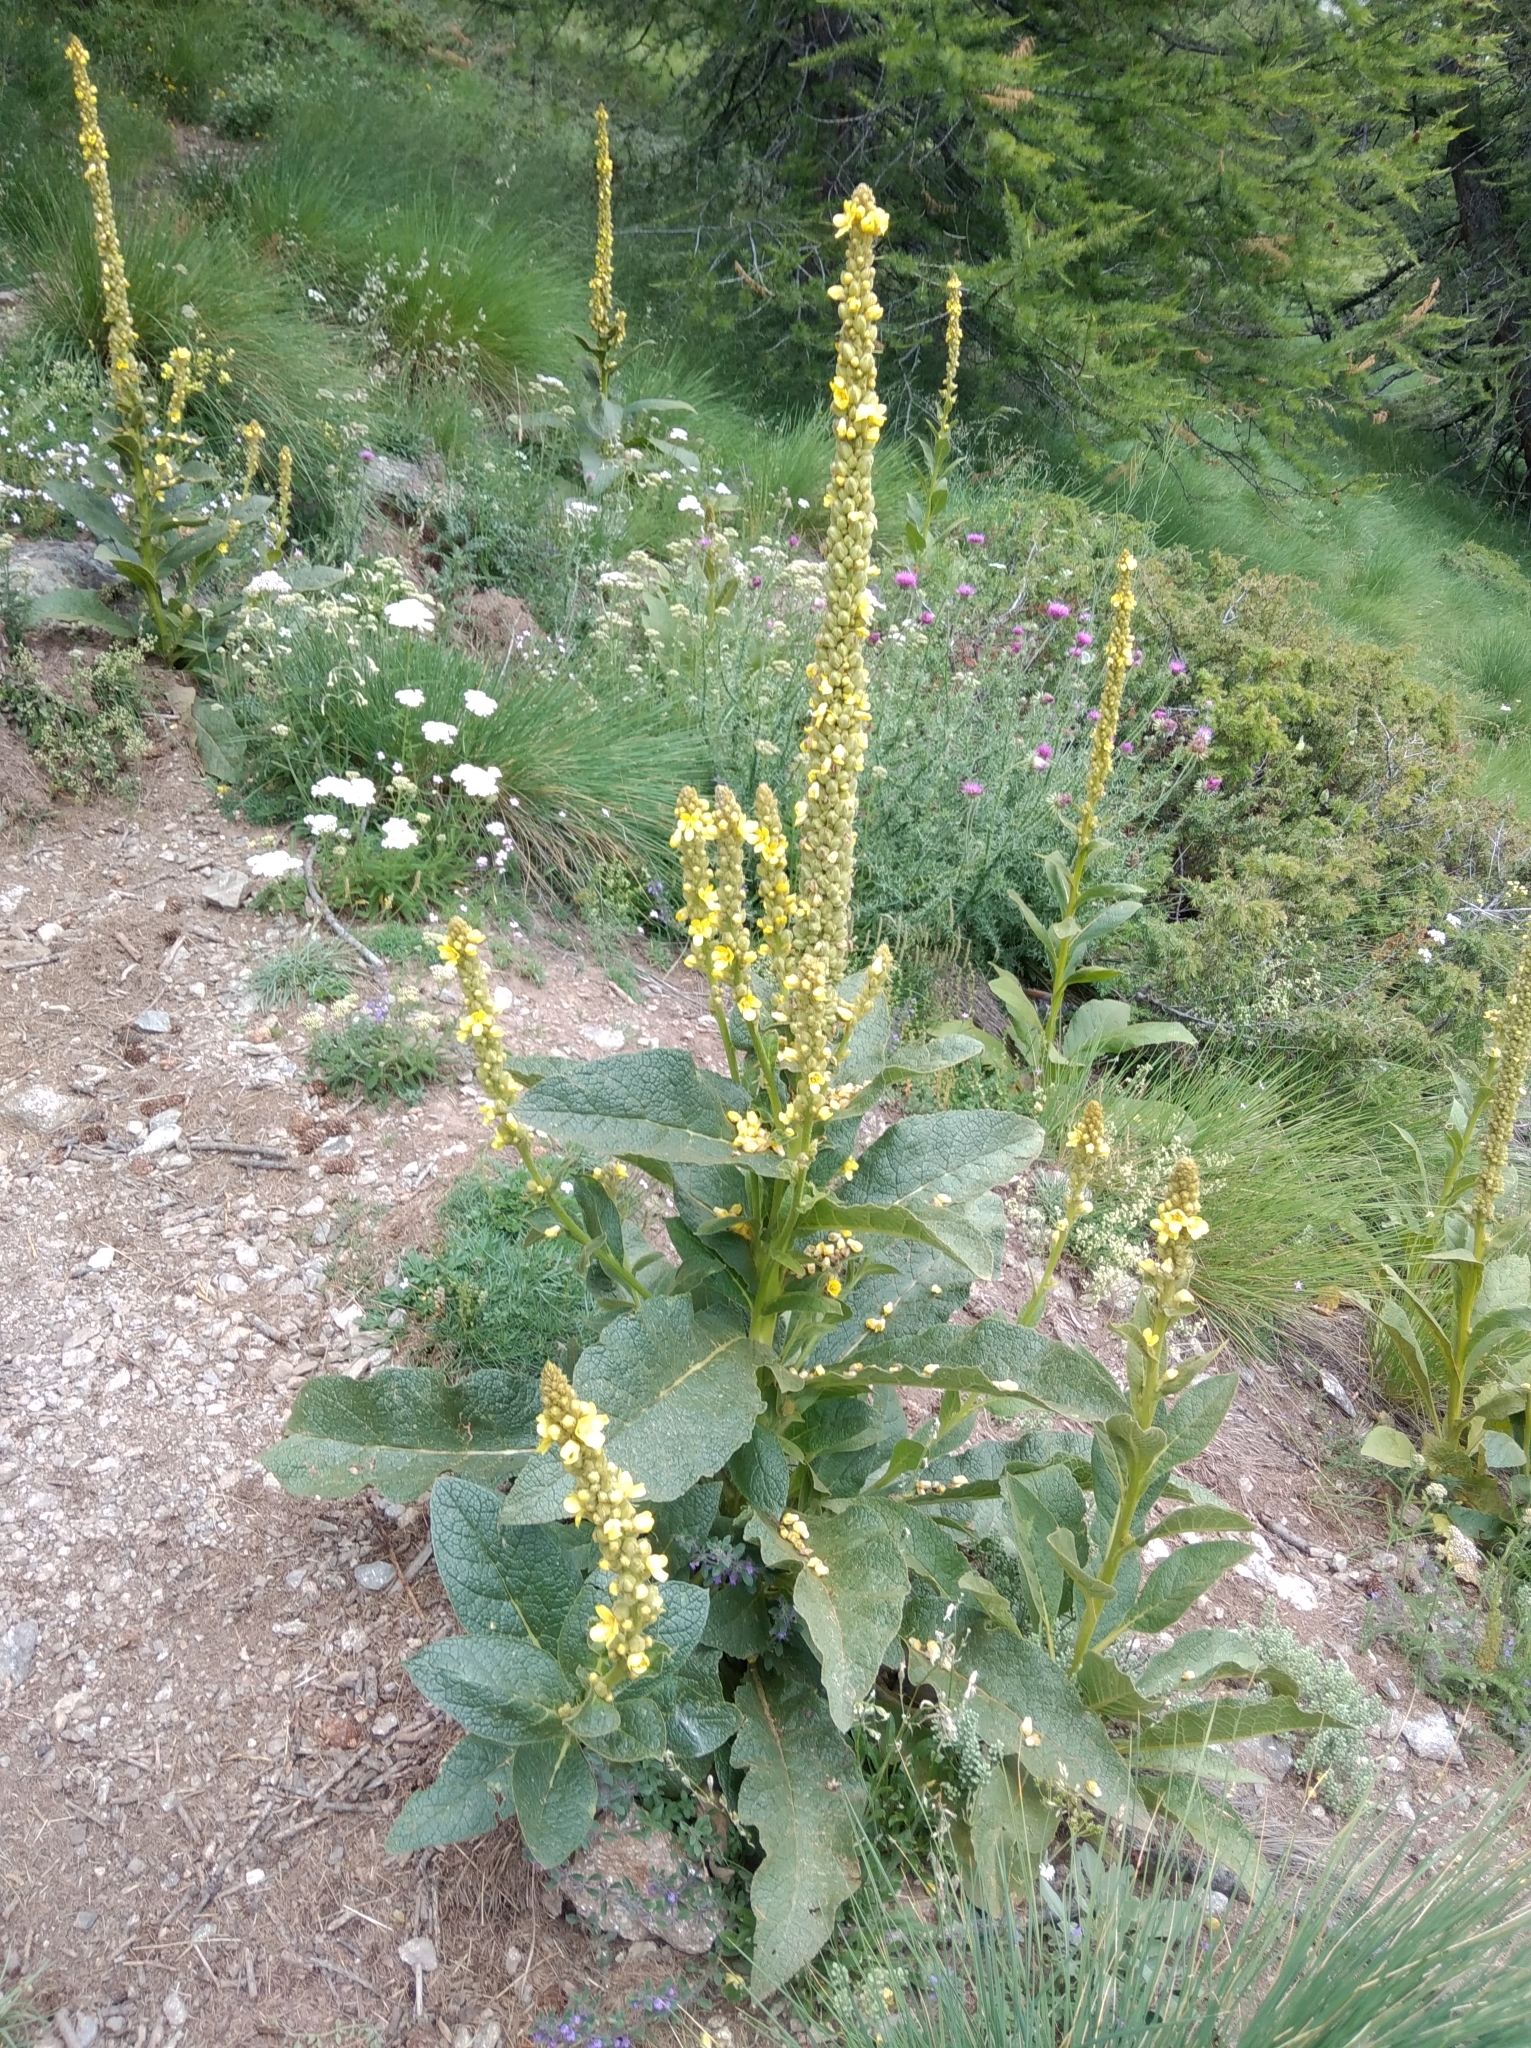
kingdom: Plantae
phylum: Tracheophyta
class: Magnoliopsida
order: Lamiales
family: Scrophulariaceae
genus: Verbascum
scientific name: Verbascum thapsus
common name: Common mullein
